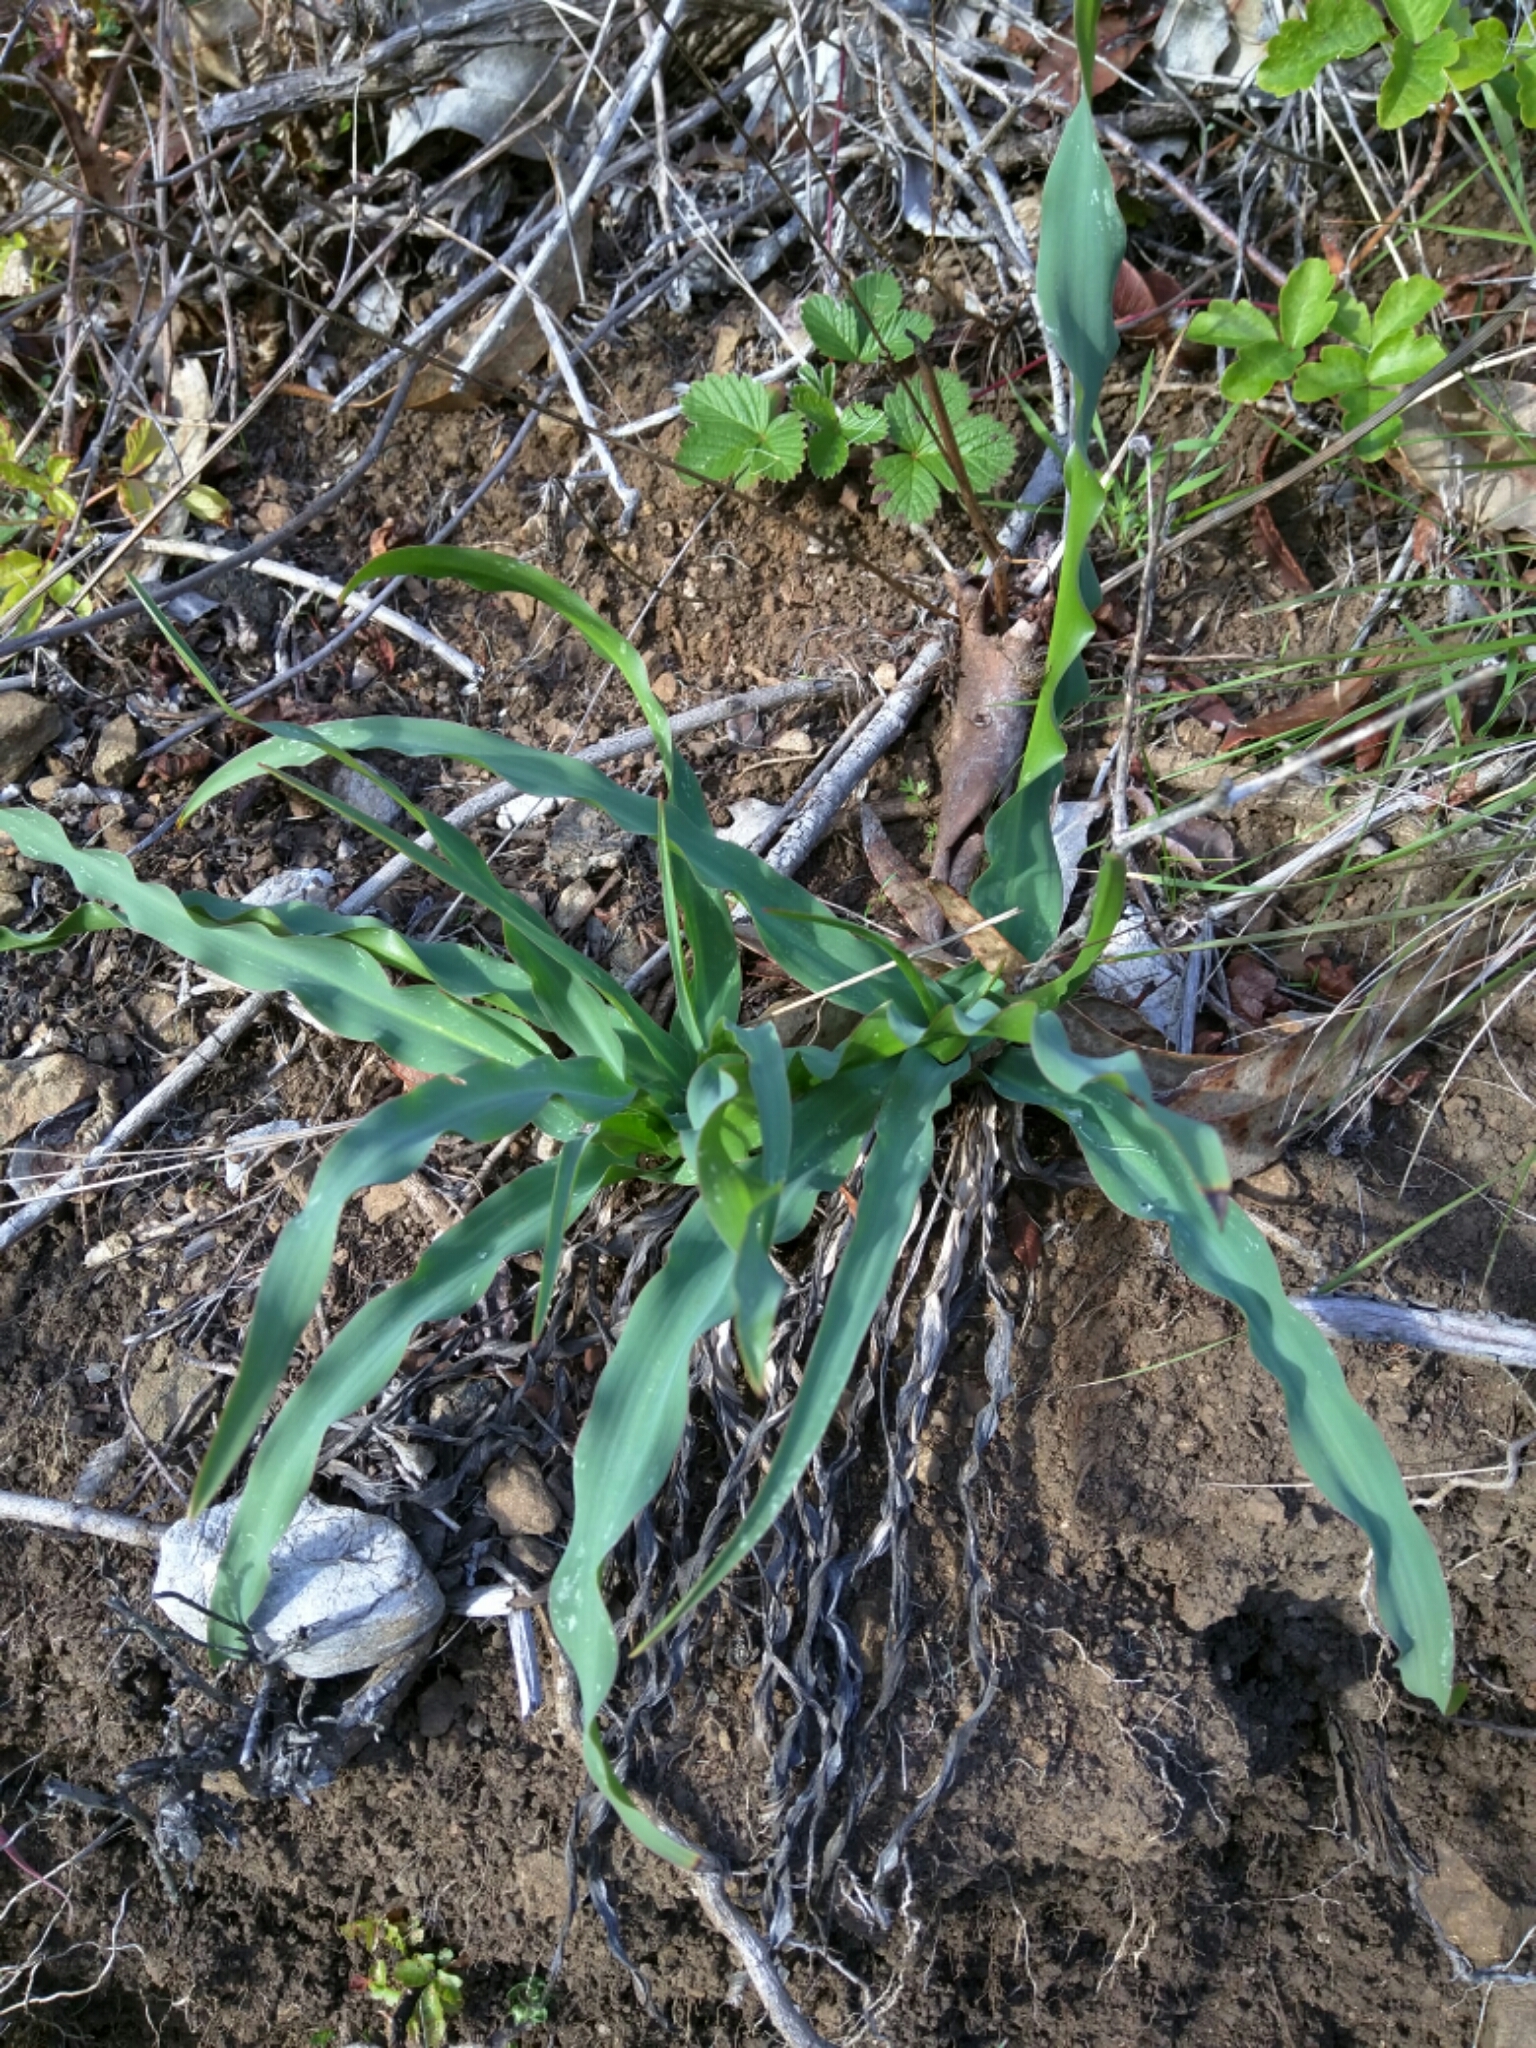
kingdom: Plantae
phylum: Tracheophyta
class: Liliopsida
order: Asparagales
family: Asparagaceae
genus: Chlorogalum
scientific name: Chlorogalum pomeridianum
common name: Amole
